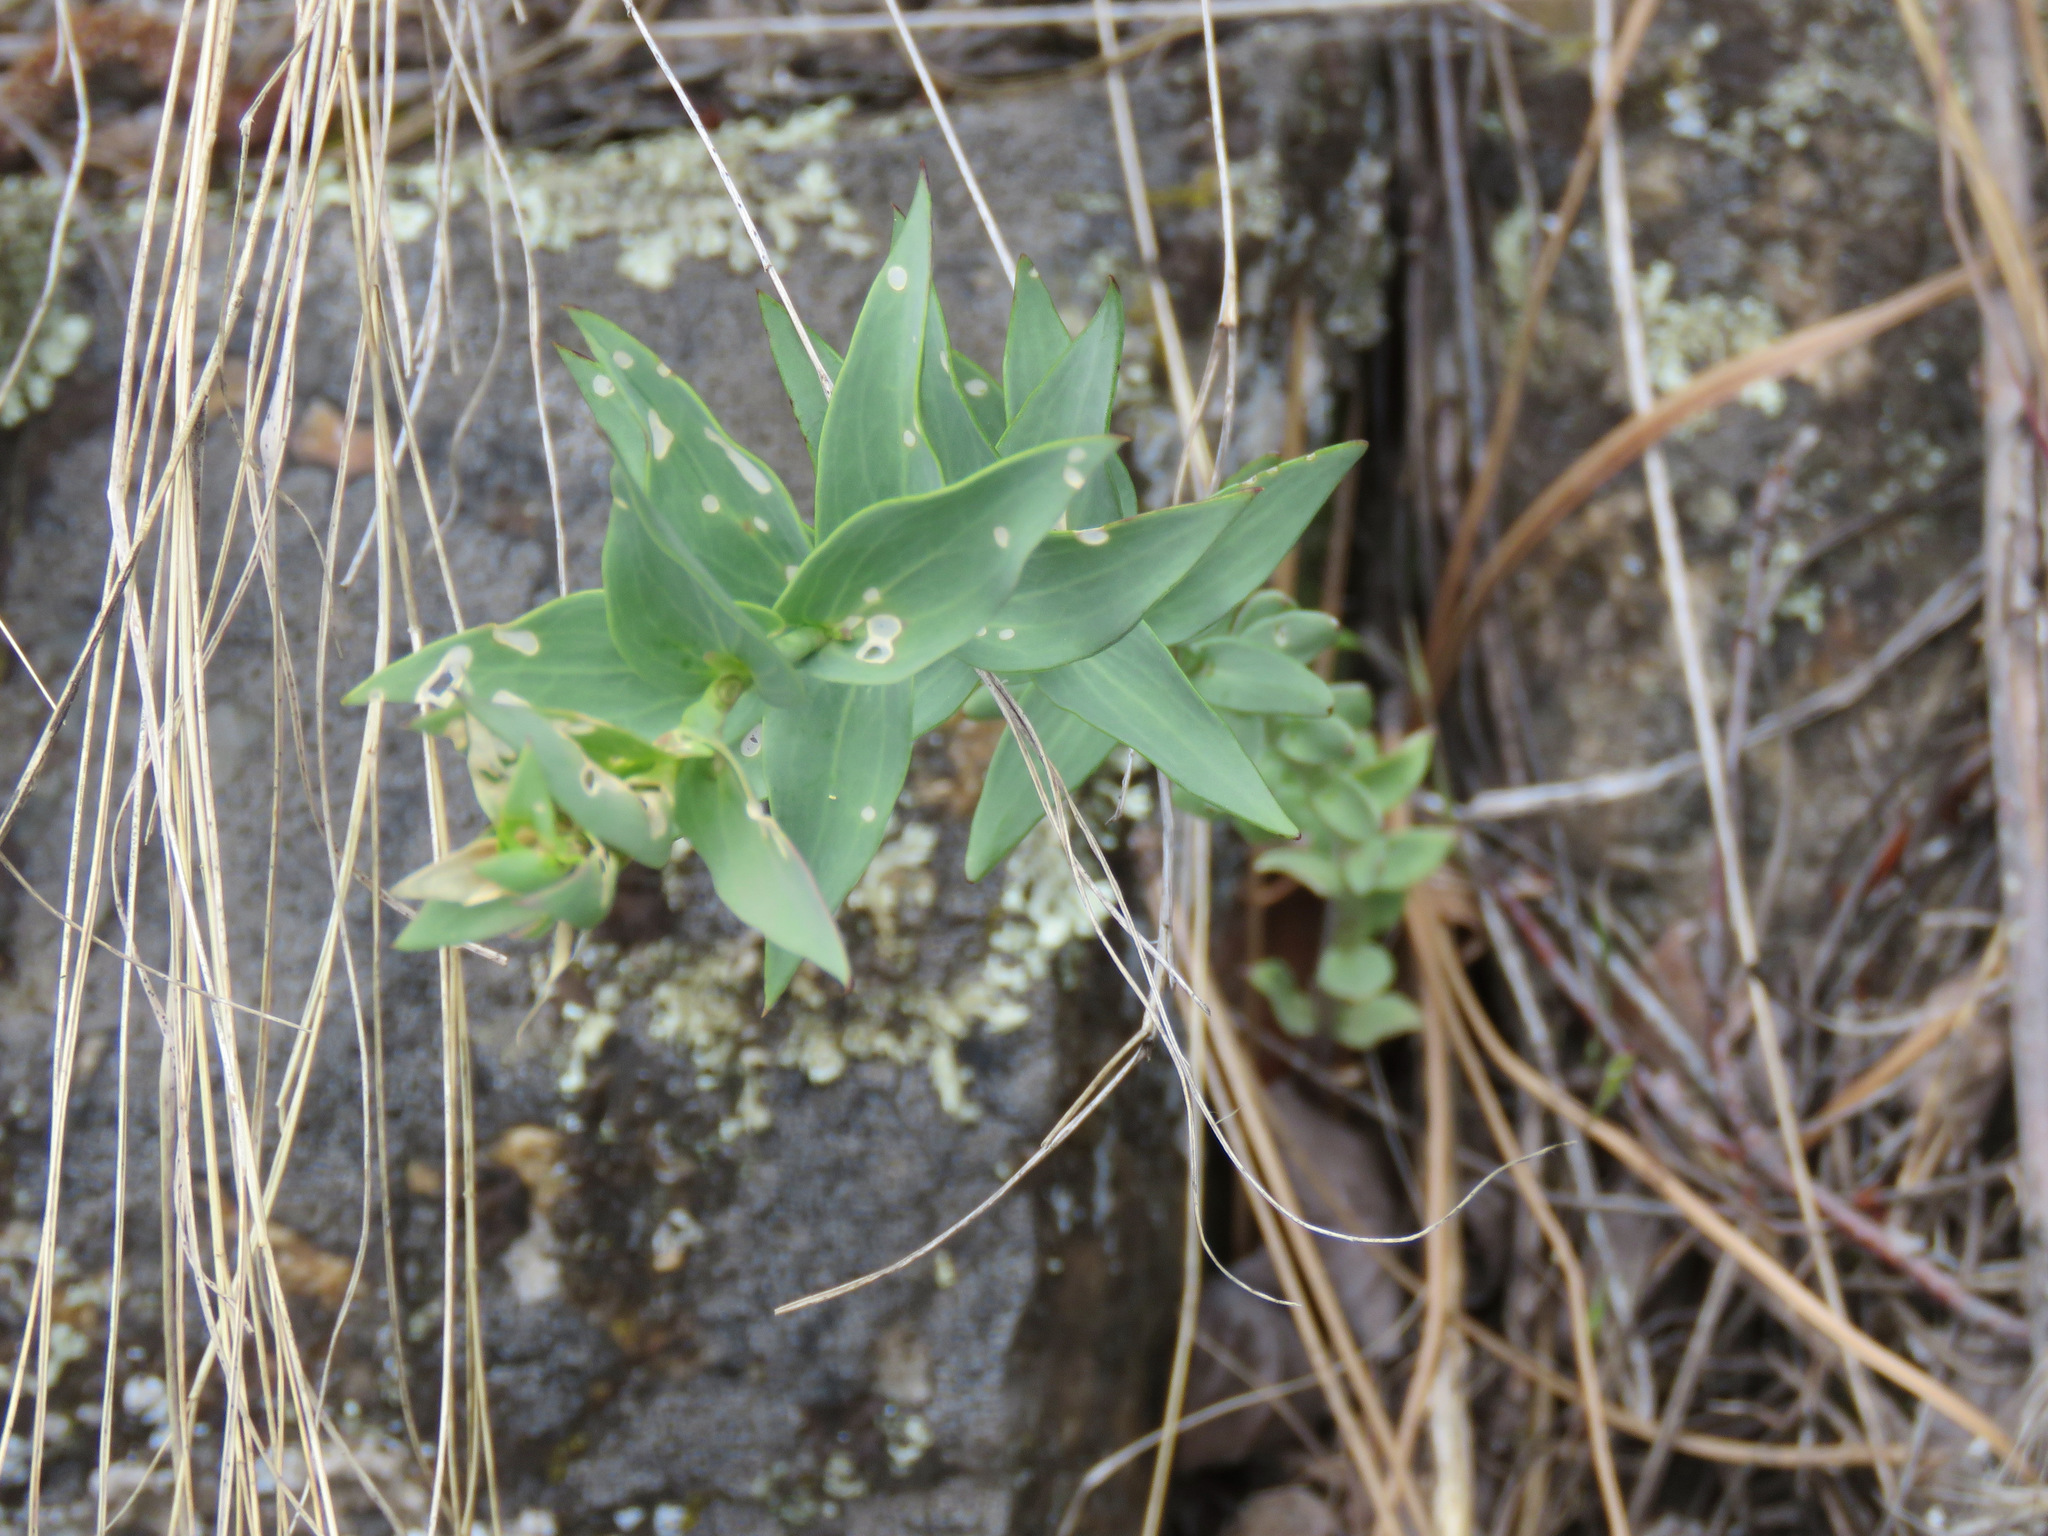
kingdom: Plantae
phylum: Tracheophyta
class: Magnoliopsida
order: Lamiales
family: Plantaginaceae
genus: Linaria
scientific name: Linaria dalmatica
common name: Dalmatian toadflax
